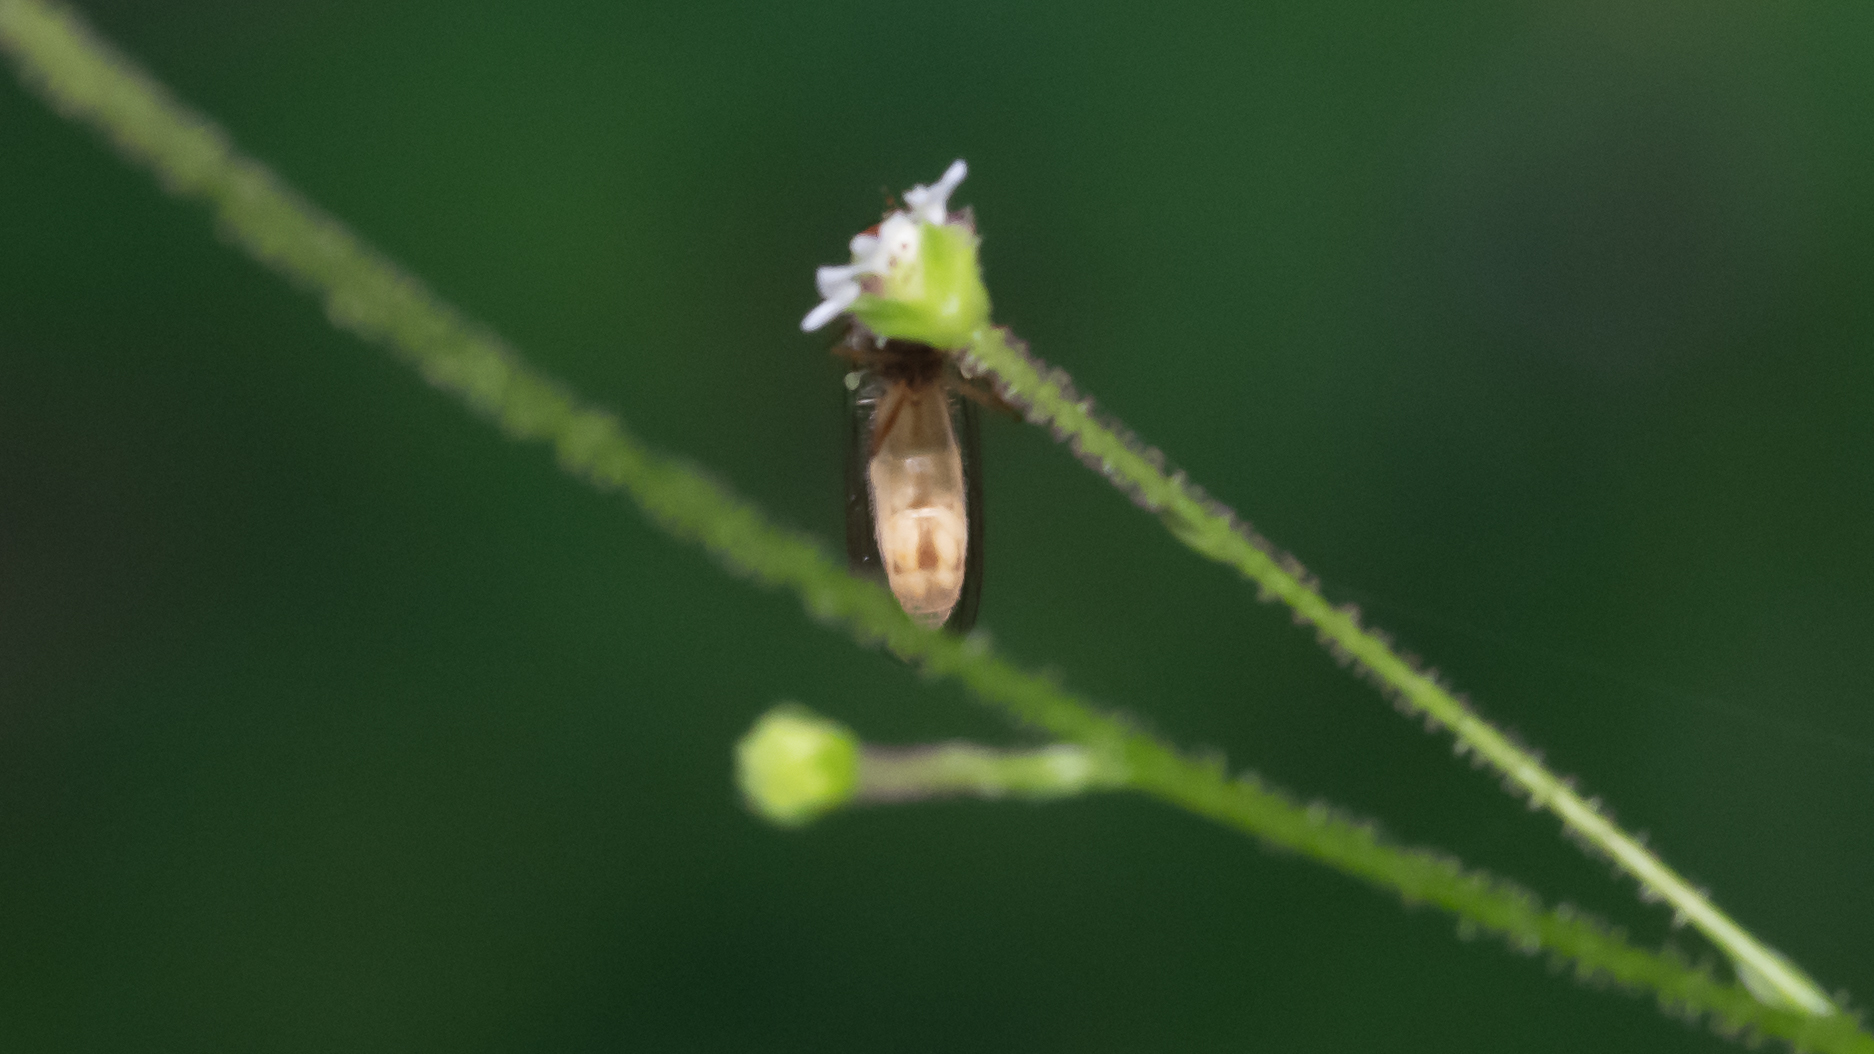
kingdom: Animalia
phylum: Arthropoda
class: Insecta
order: Diptera
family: Syrphidae
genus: Melanostoma
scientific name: Melanostoma mellina
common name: Hover fly
